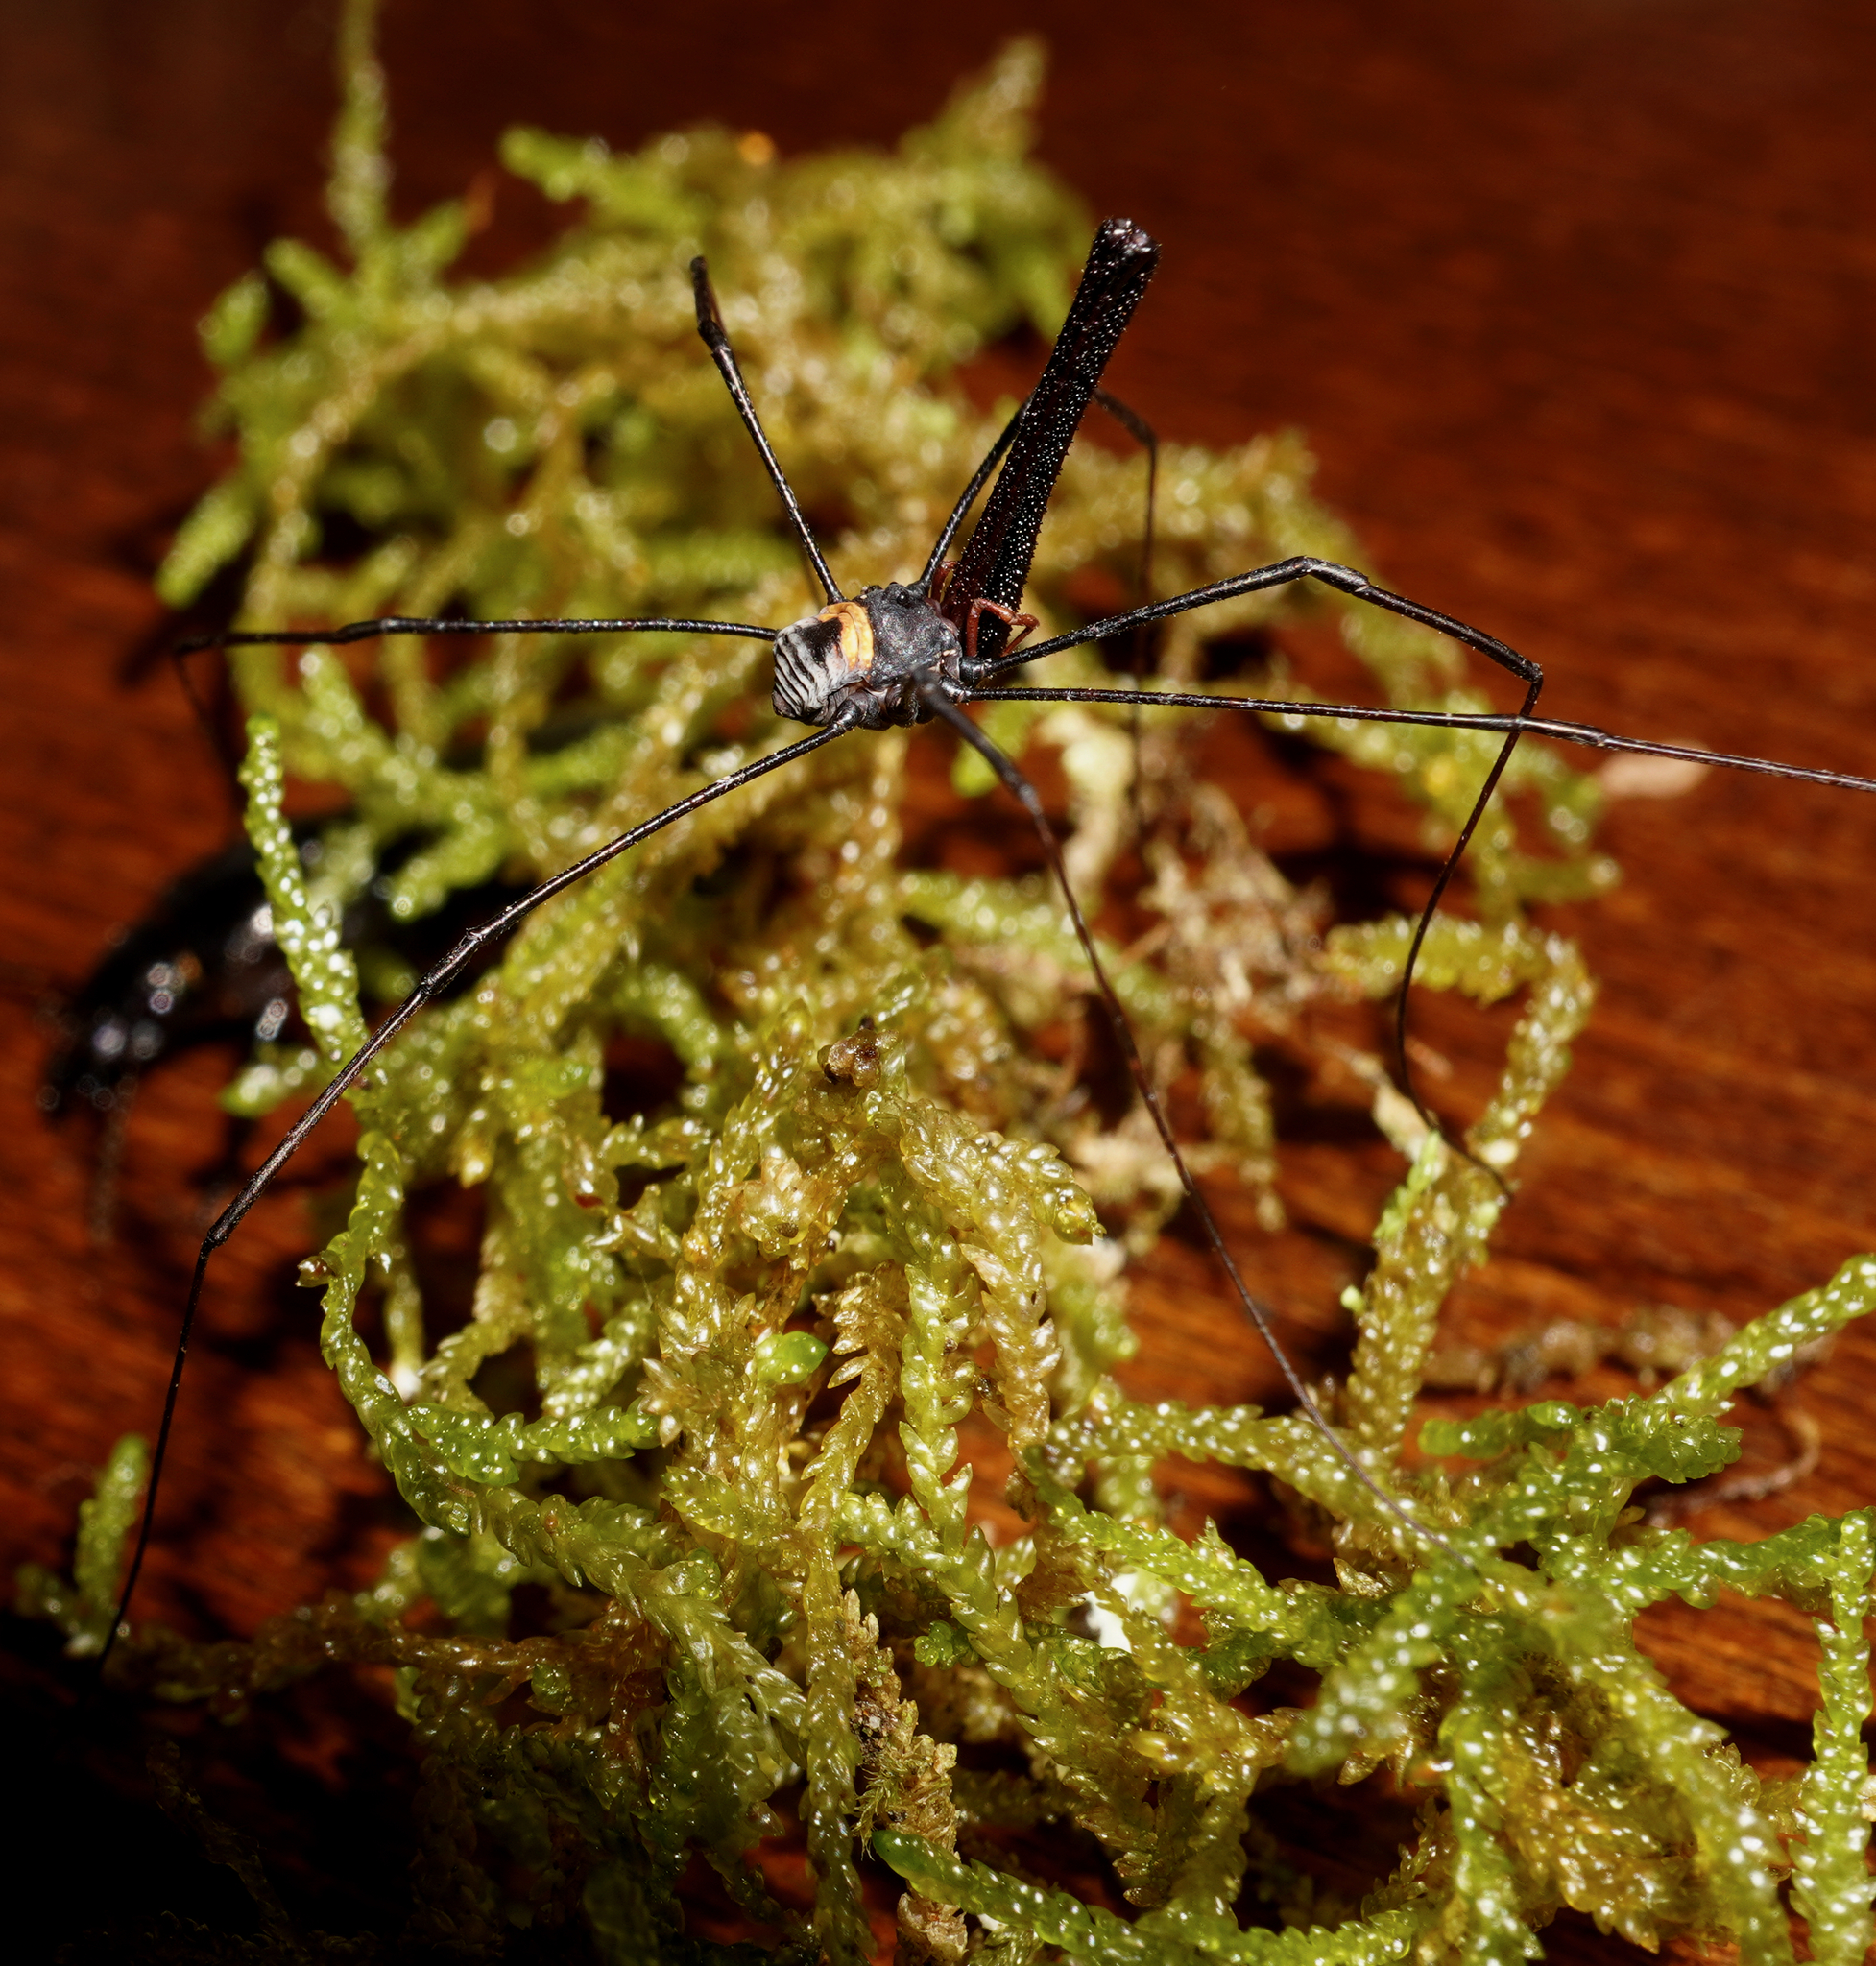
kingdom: Animalia
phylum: Arthropoda
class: Arachnida
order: Opiliones
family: Neopilionidae
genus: Pantopsalis
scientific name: Pantopsalis coronata
